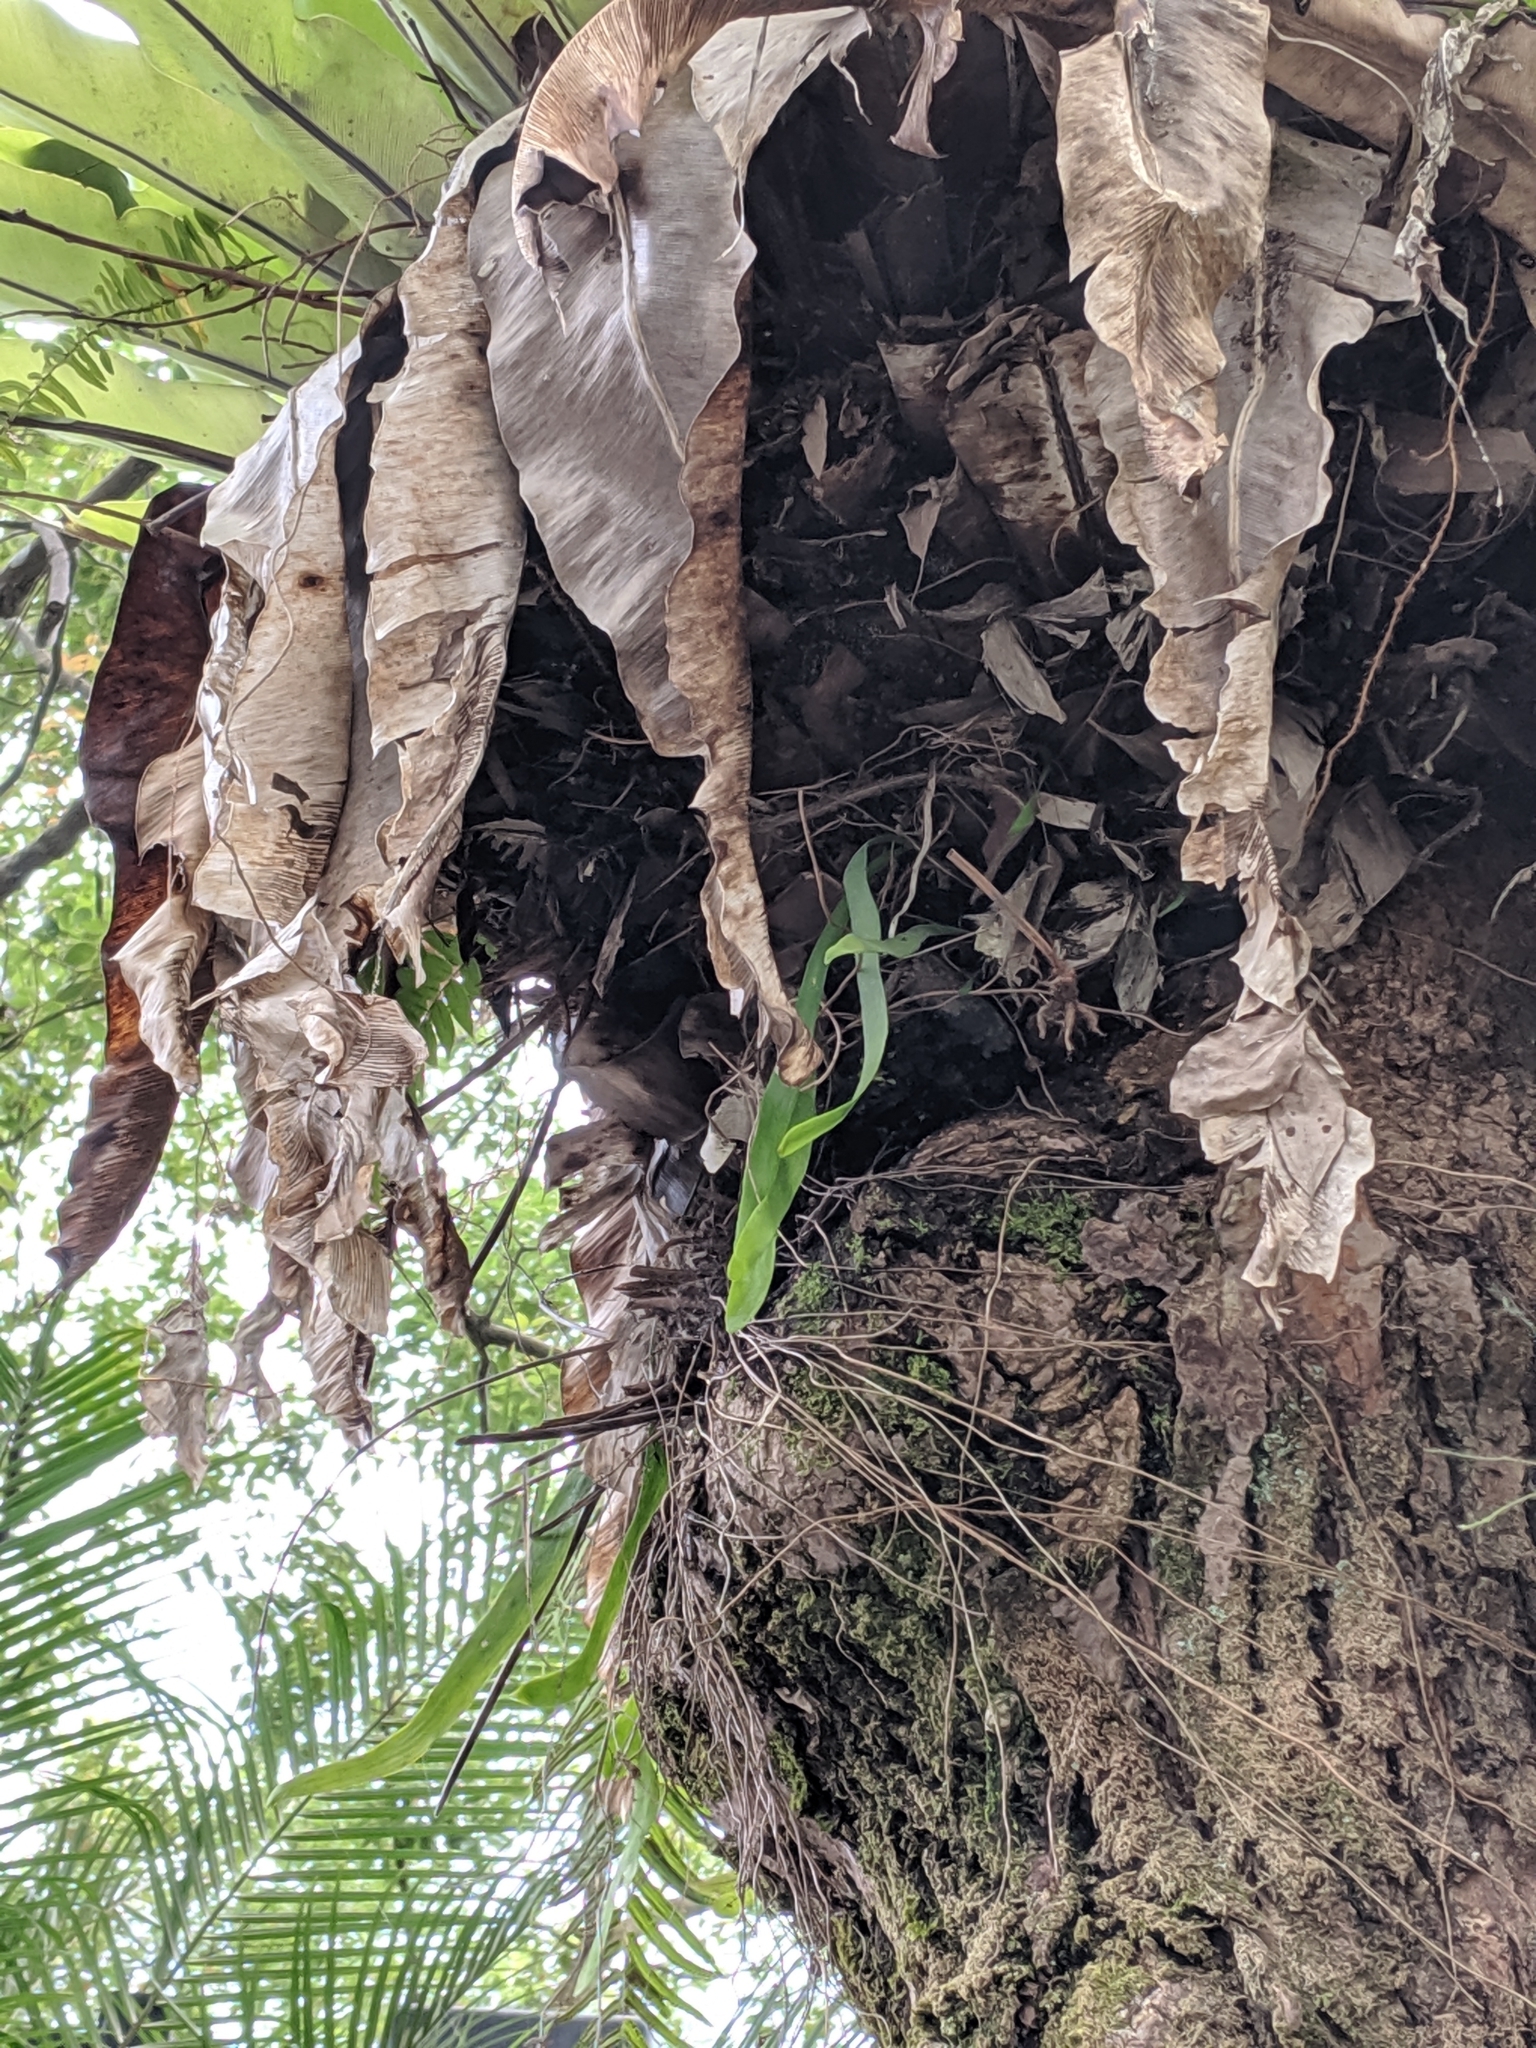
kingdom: Plantae
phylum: Tracheophyta
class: Polypodiopsida
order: Ophioglossales
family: Ophioglossaceae
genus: Ophioderma
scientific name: Ophioderma pendulum
